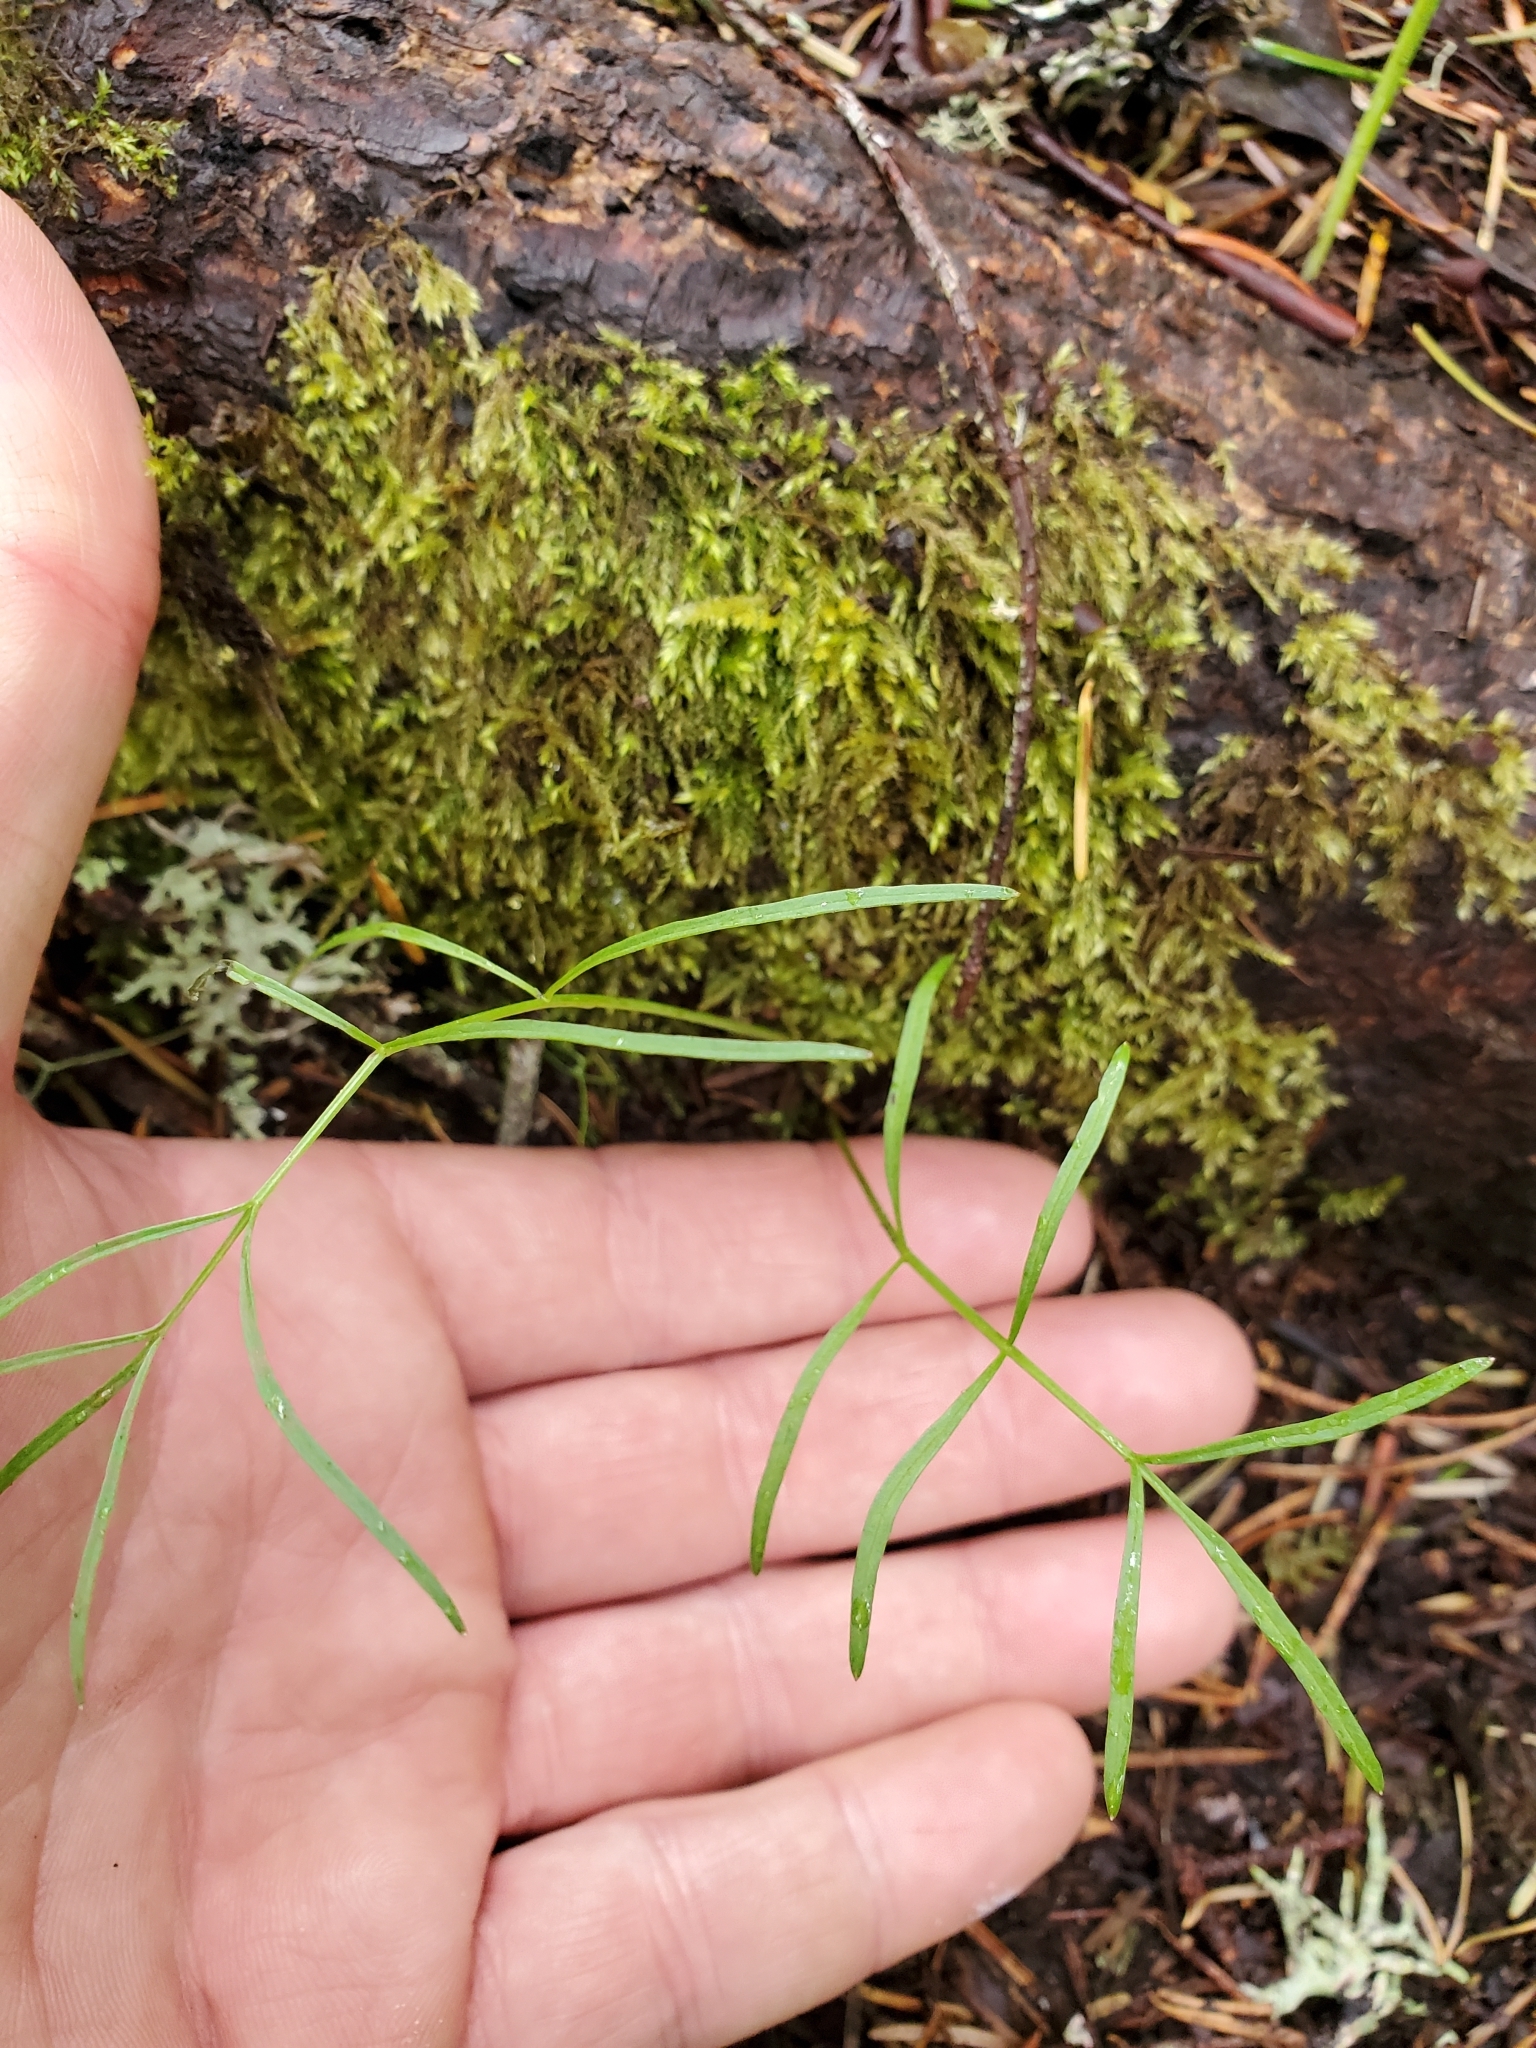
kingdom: Plantae
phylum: Tracheophyta
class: Magnoliopsida
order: Apiales
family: Apiaceae
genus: Perideridia
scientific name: Perideridia gairdneri
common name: False caraway
